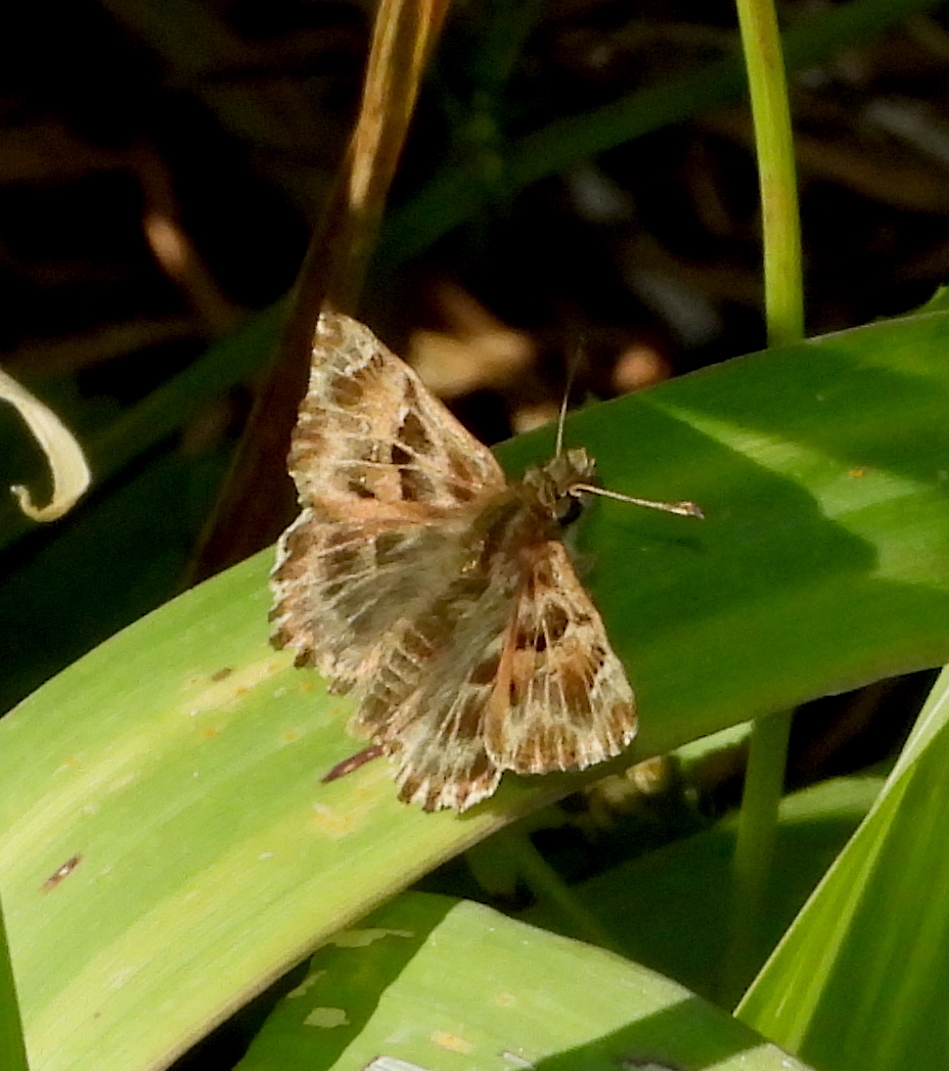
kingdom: Animalia
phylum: Arthropoda
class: Insecta
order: Lepidoptera
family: Hesperiidae
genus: Carcharodus
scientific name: Carcharodus alceae
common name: Mallow skipper
